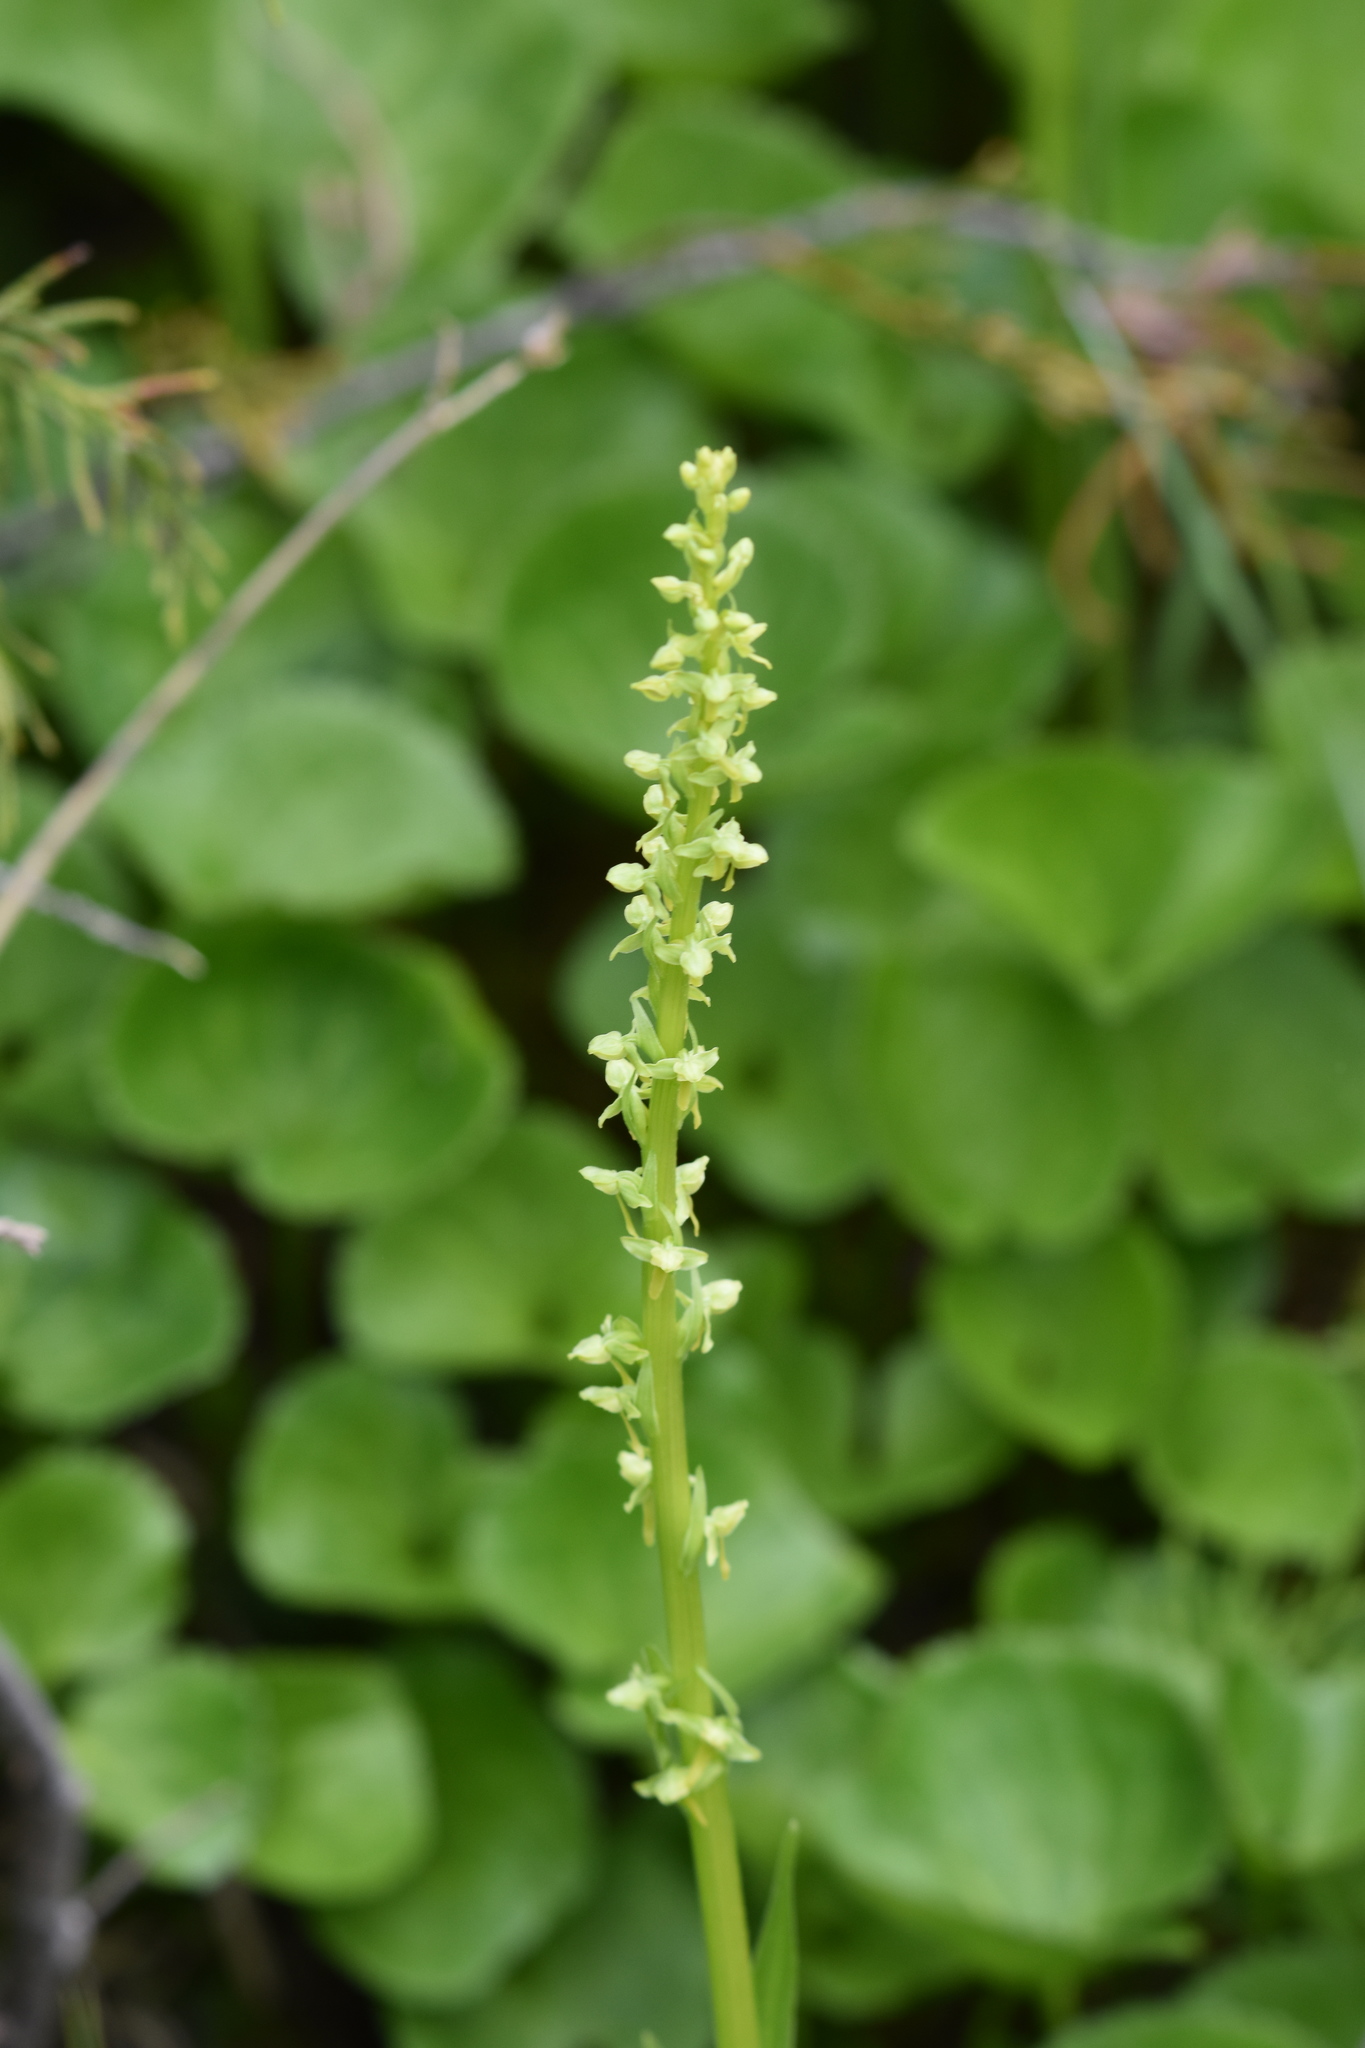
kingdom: Plantae
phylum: Tracheophyta
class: Liliopsida
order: Asparagales
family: Orchidaceae
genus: Platanthera
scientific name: Platanthera stricta
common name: Slender bog orchid
